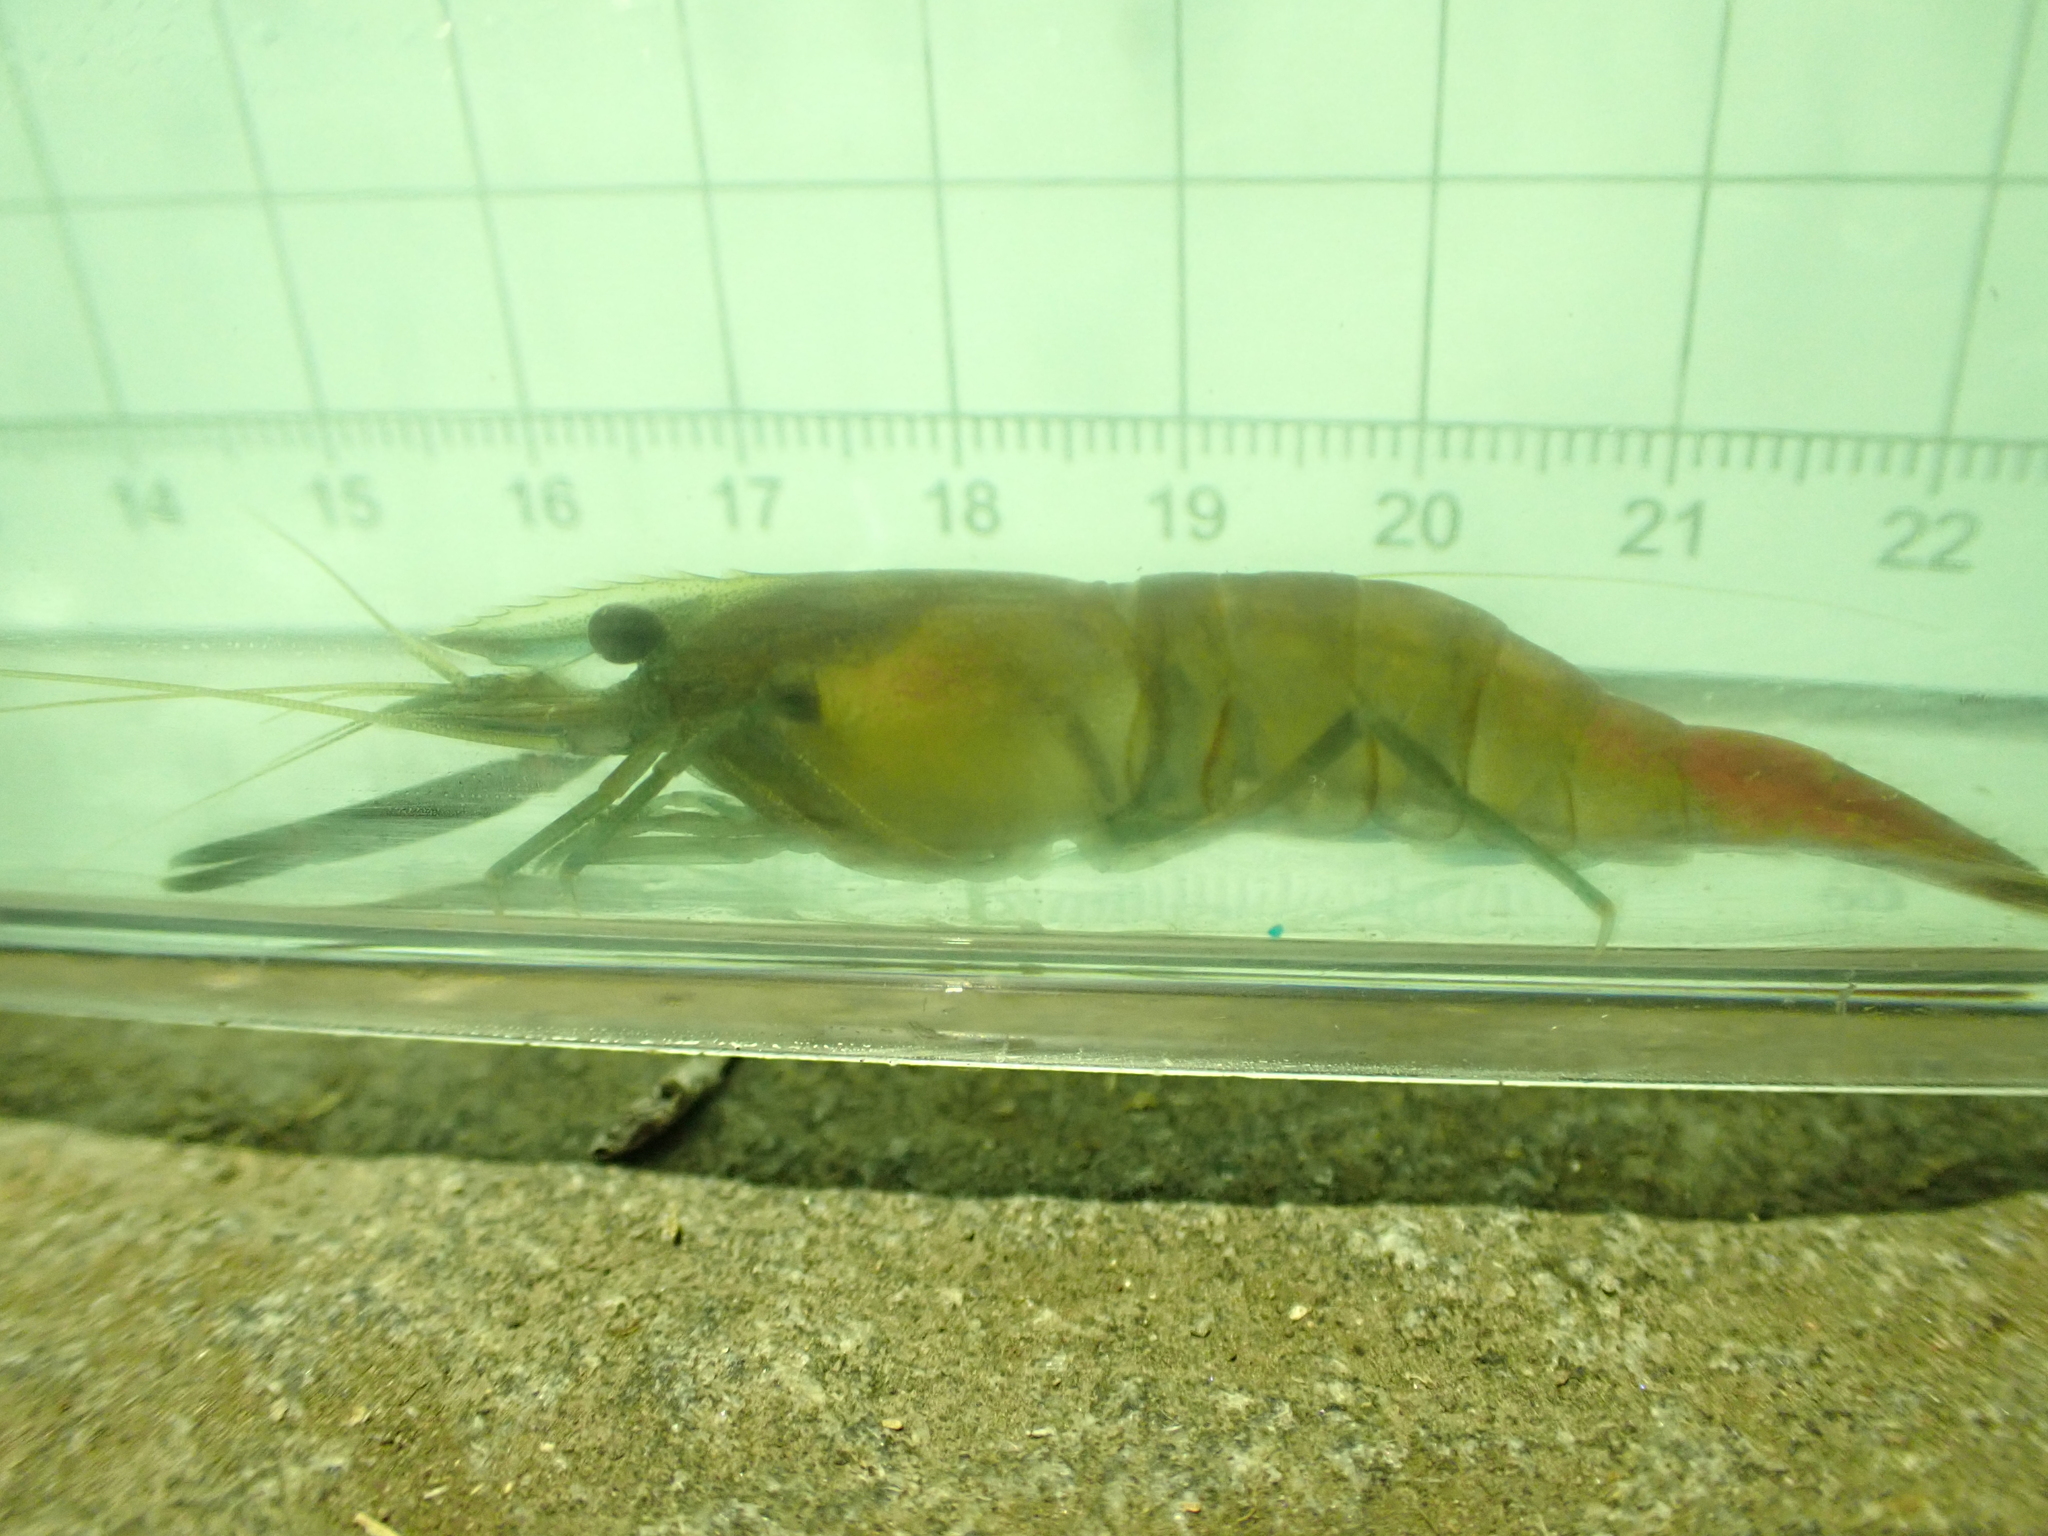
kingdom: Animalia
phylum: Arthropoda
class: Malacostraca
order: Decapoda
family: Palaemonidae
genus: Macrobrachium
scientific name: Macrobrachium asperulum
